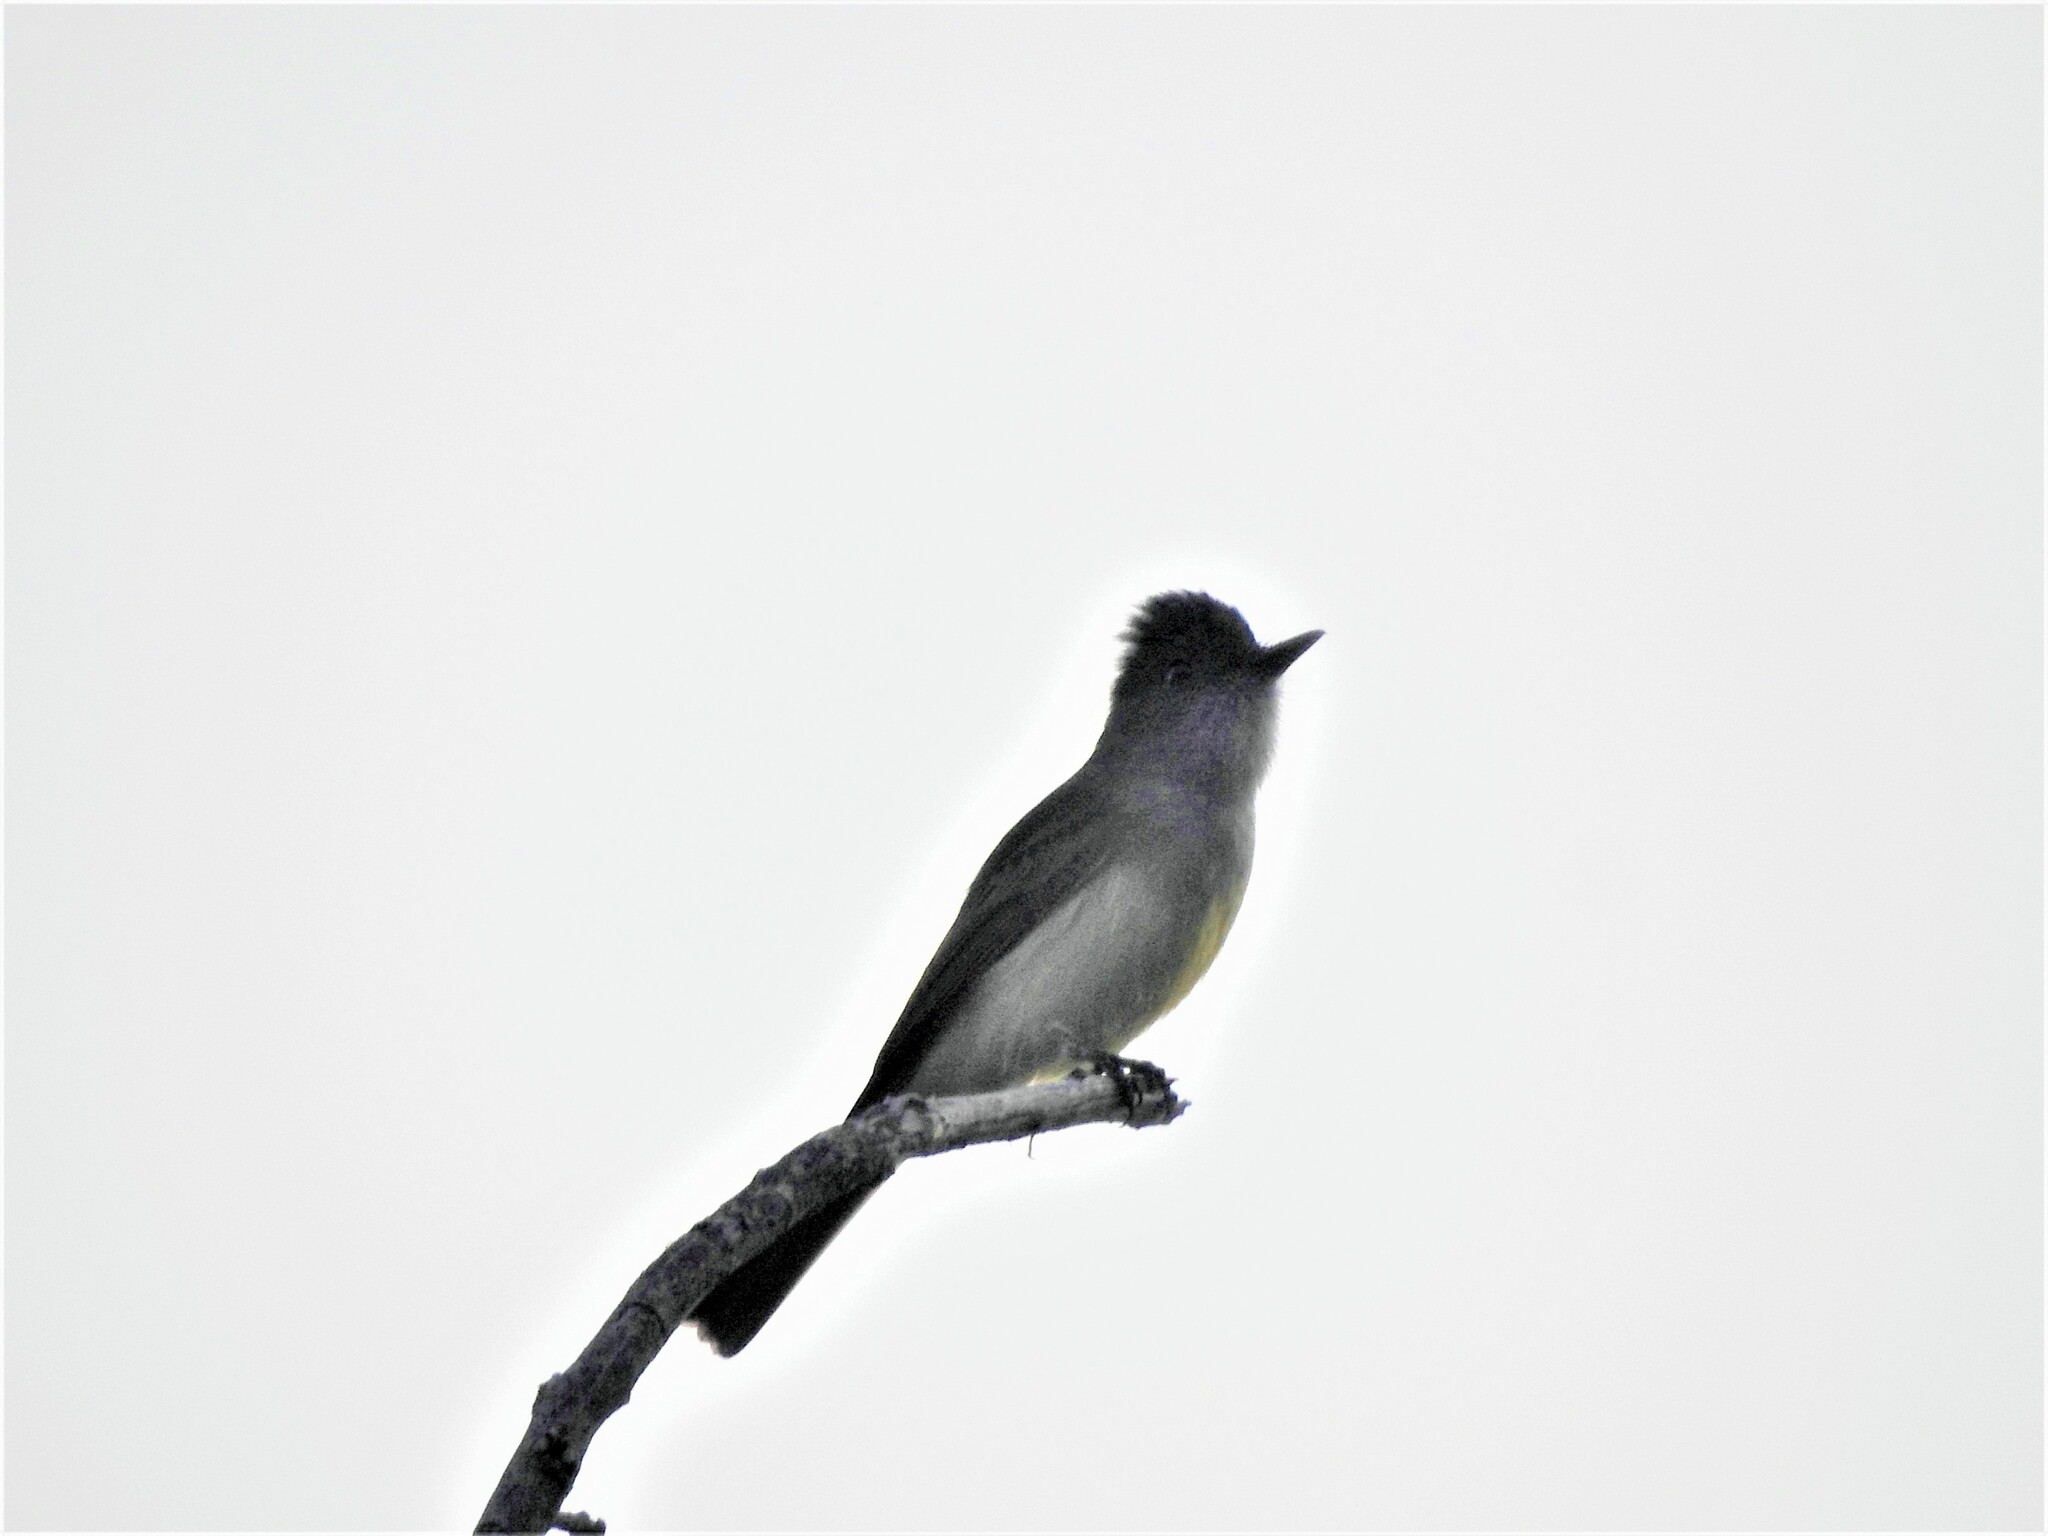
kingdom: Animalia
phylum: Chordata
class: Aves
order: Passeriformes
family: Tyrannidae
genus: Myiarchus
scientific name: Myiarchus tuberculifer
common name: Dusky-capped flycatcher
